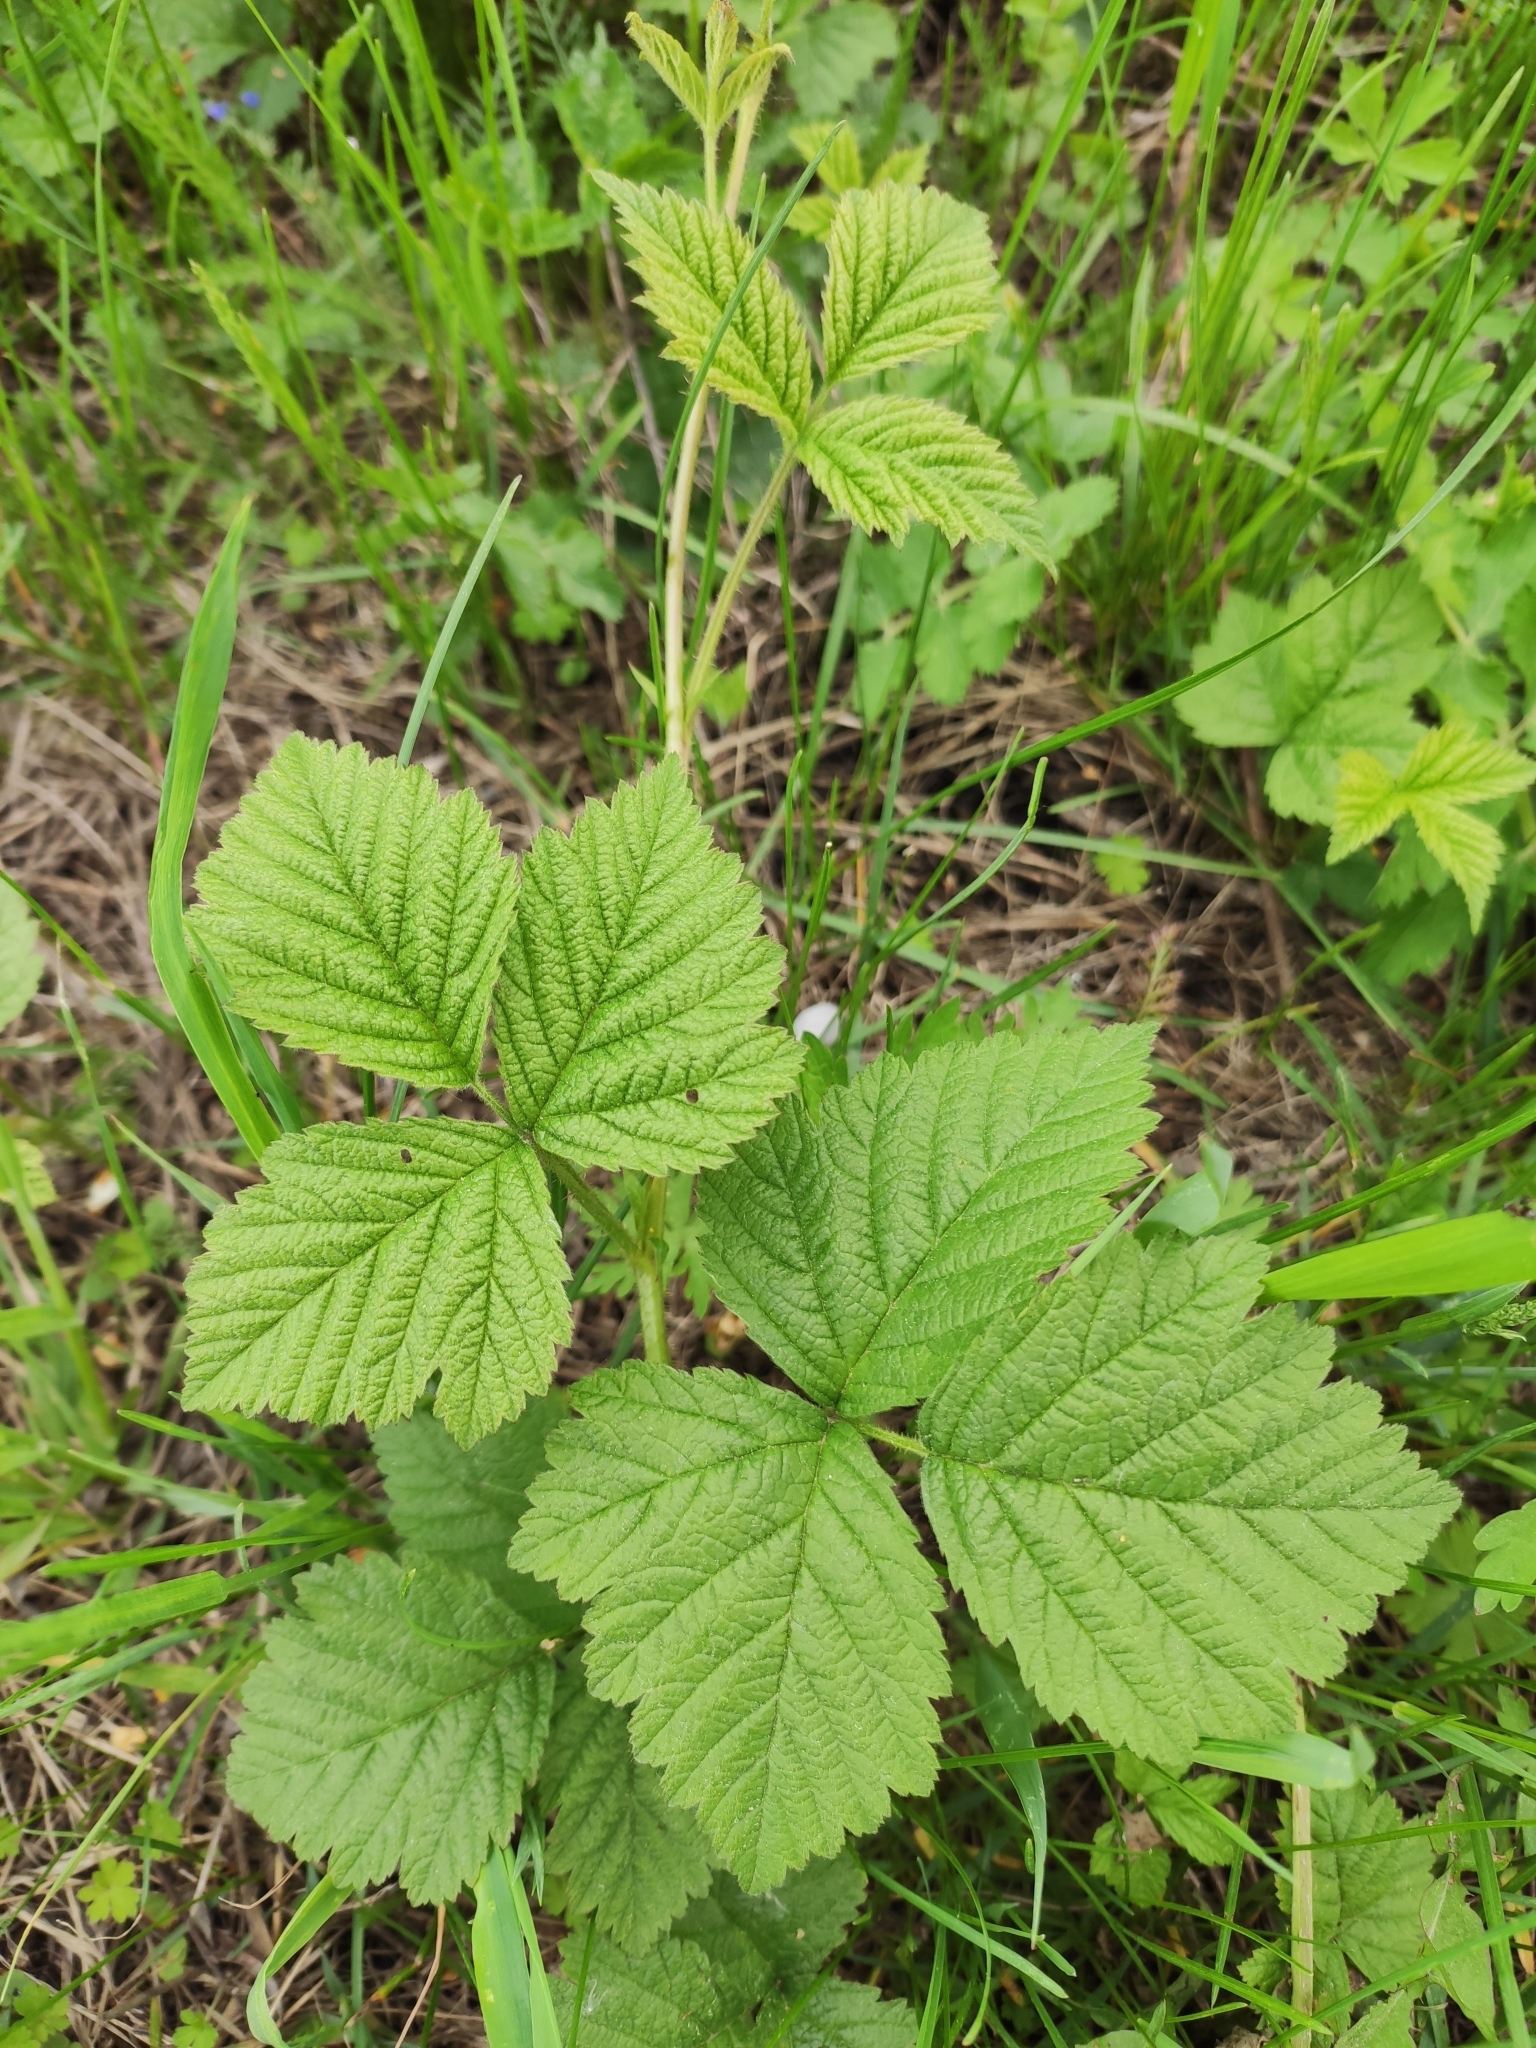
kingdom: Plantae
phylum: Tracheophyta
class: Magnoliopsida
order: Rosales
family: Rosaceae
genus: Rubus
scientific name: Rubus caesius
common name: Dewberry
